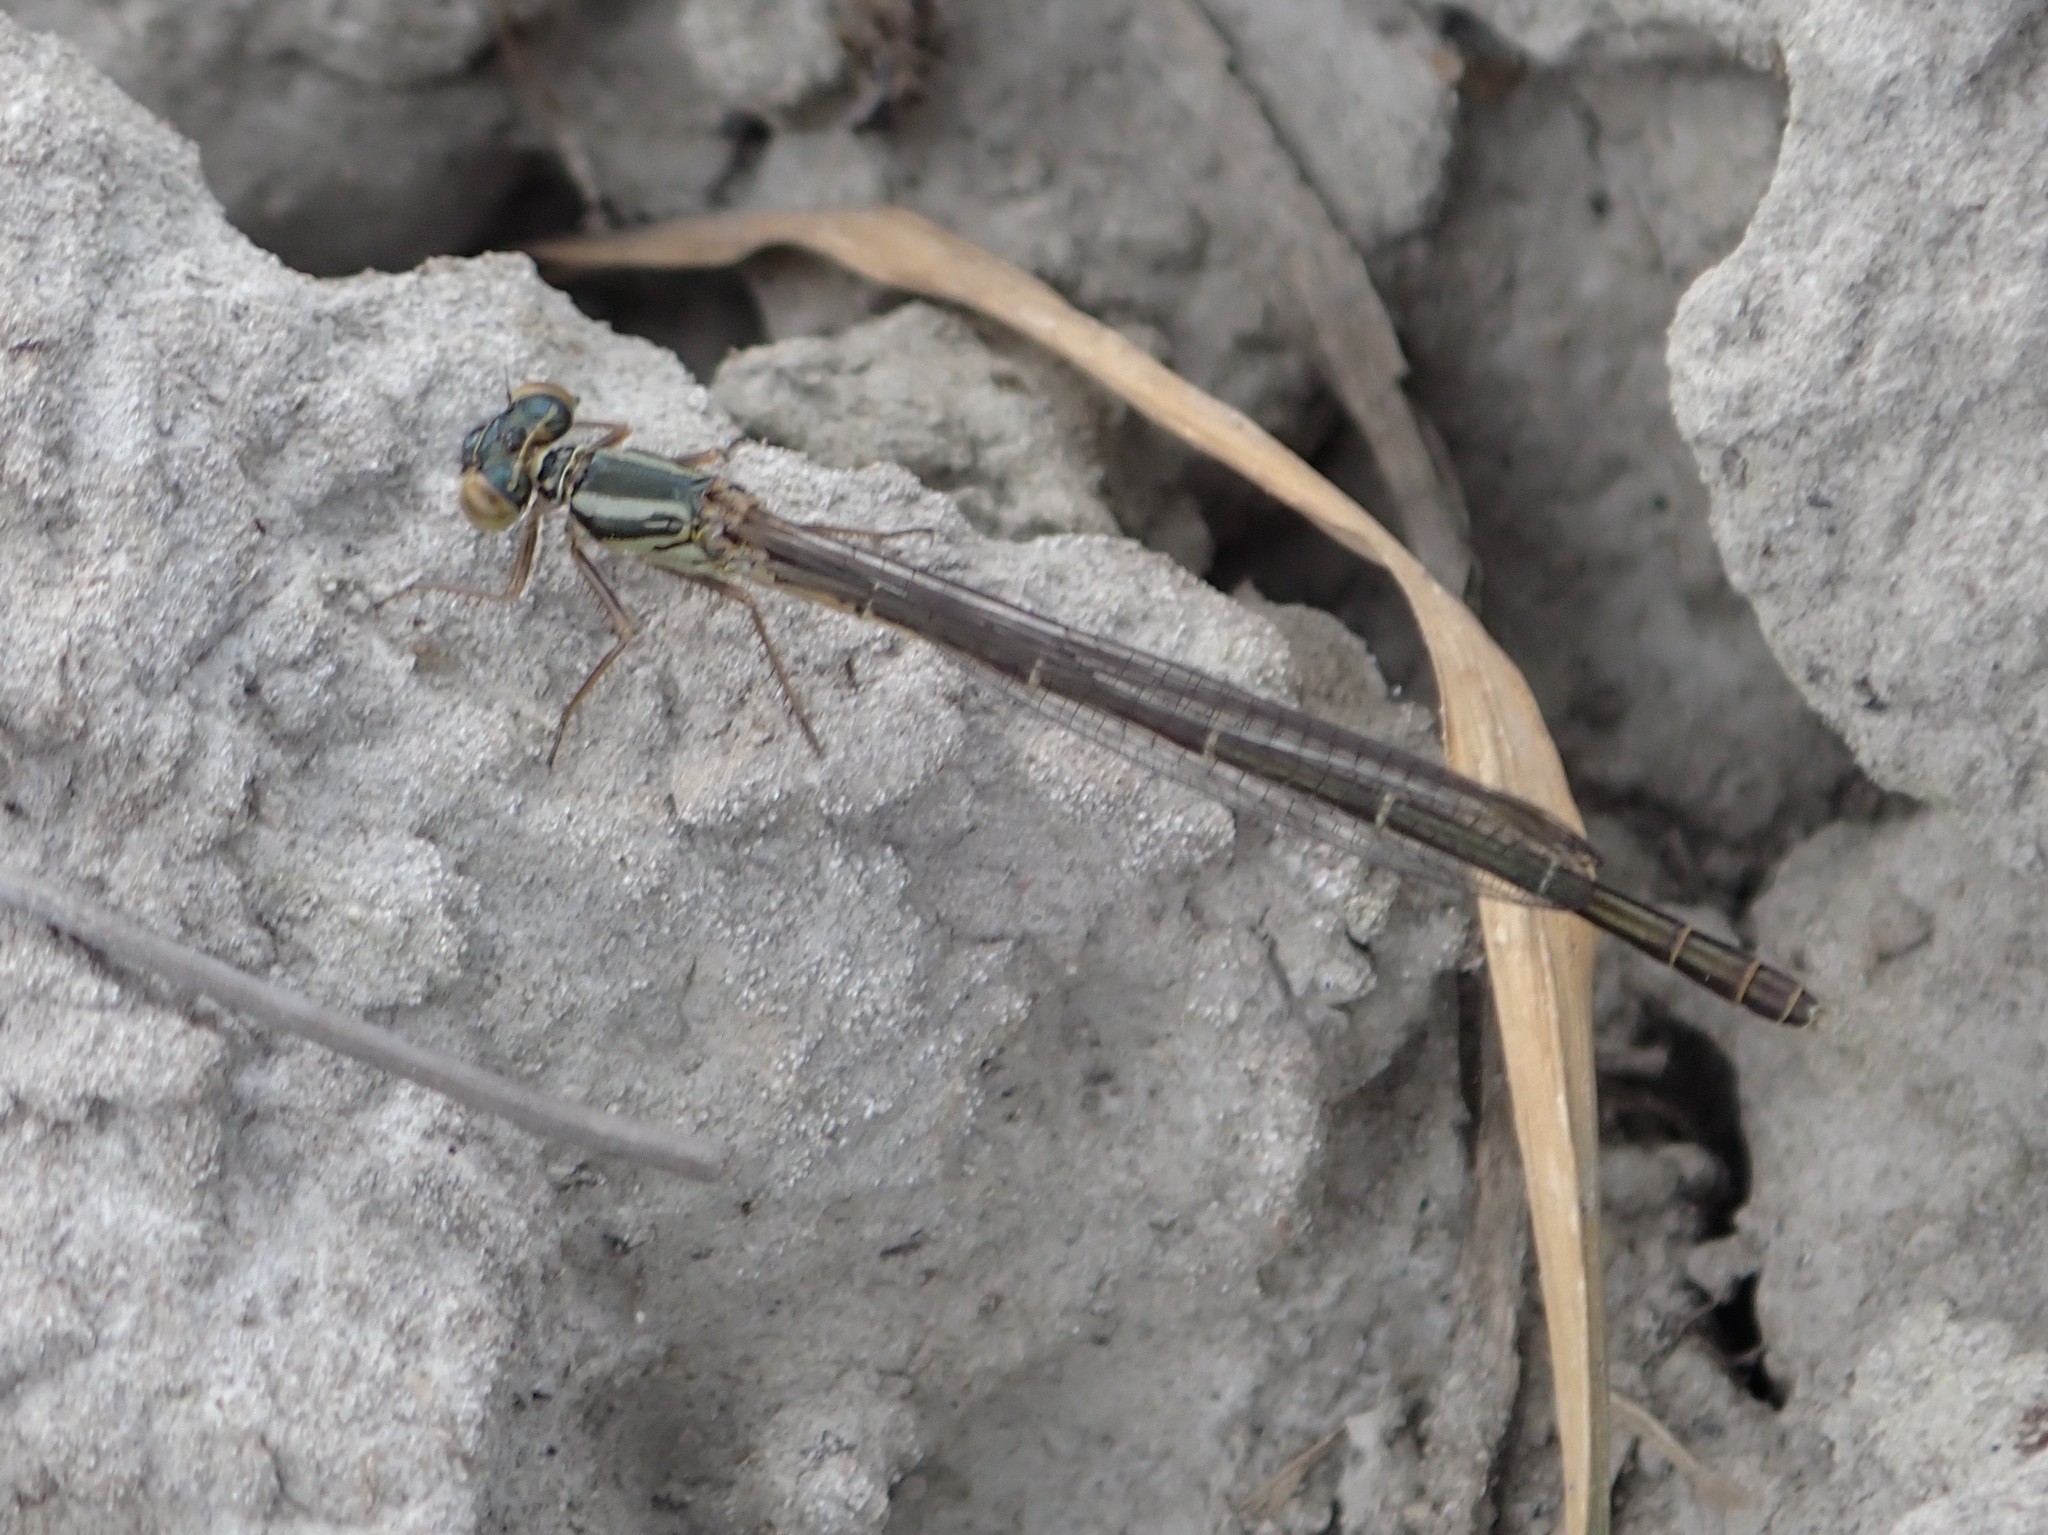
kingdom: Animalia
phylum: Arthropoda
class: Insecta
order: Odonata
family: Coenagrionidae
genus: Xanthocnemis
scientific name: Xanthocnemis zealandica
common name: Common redcoat damselfly
